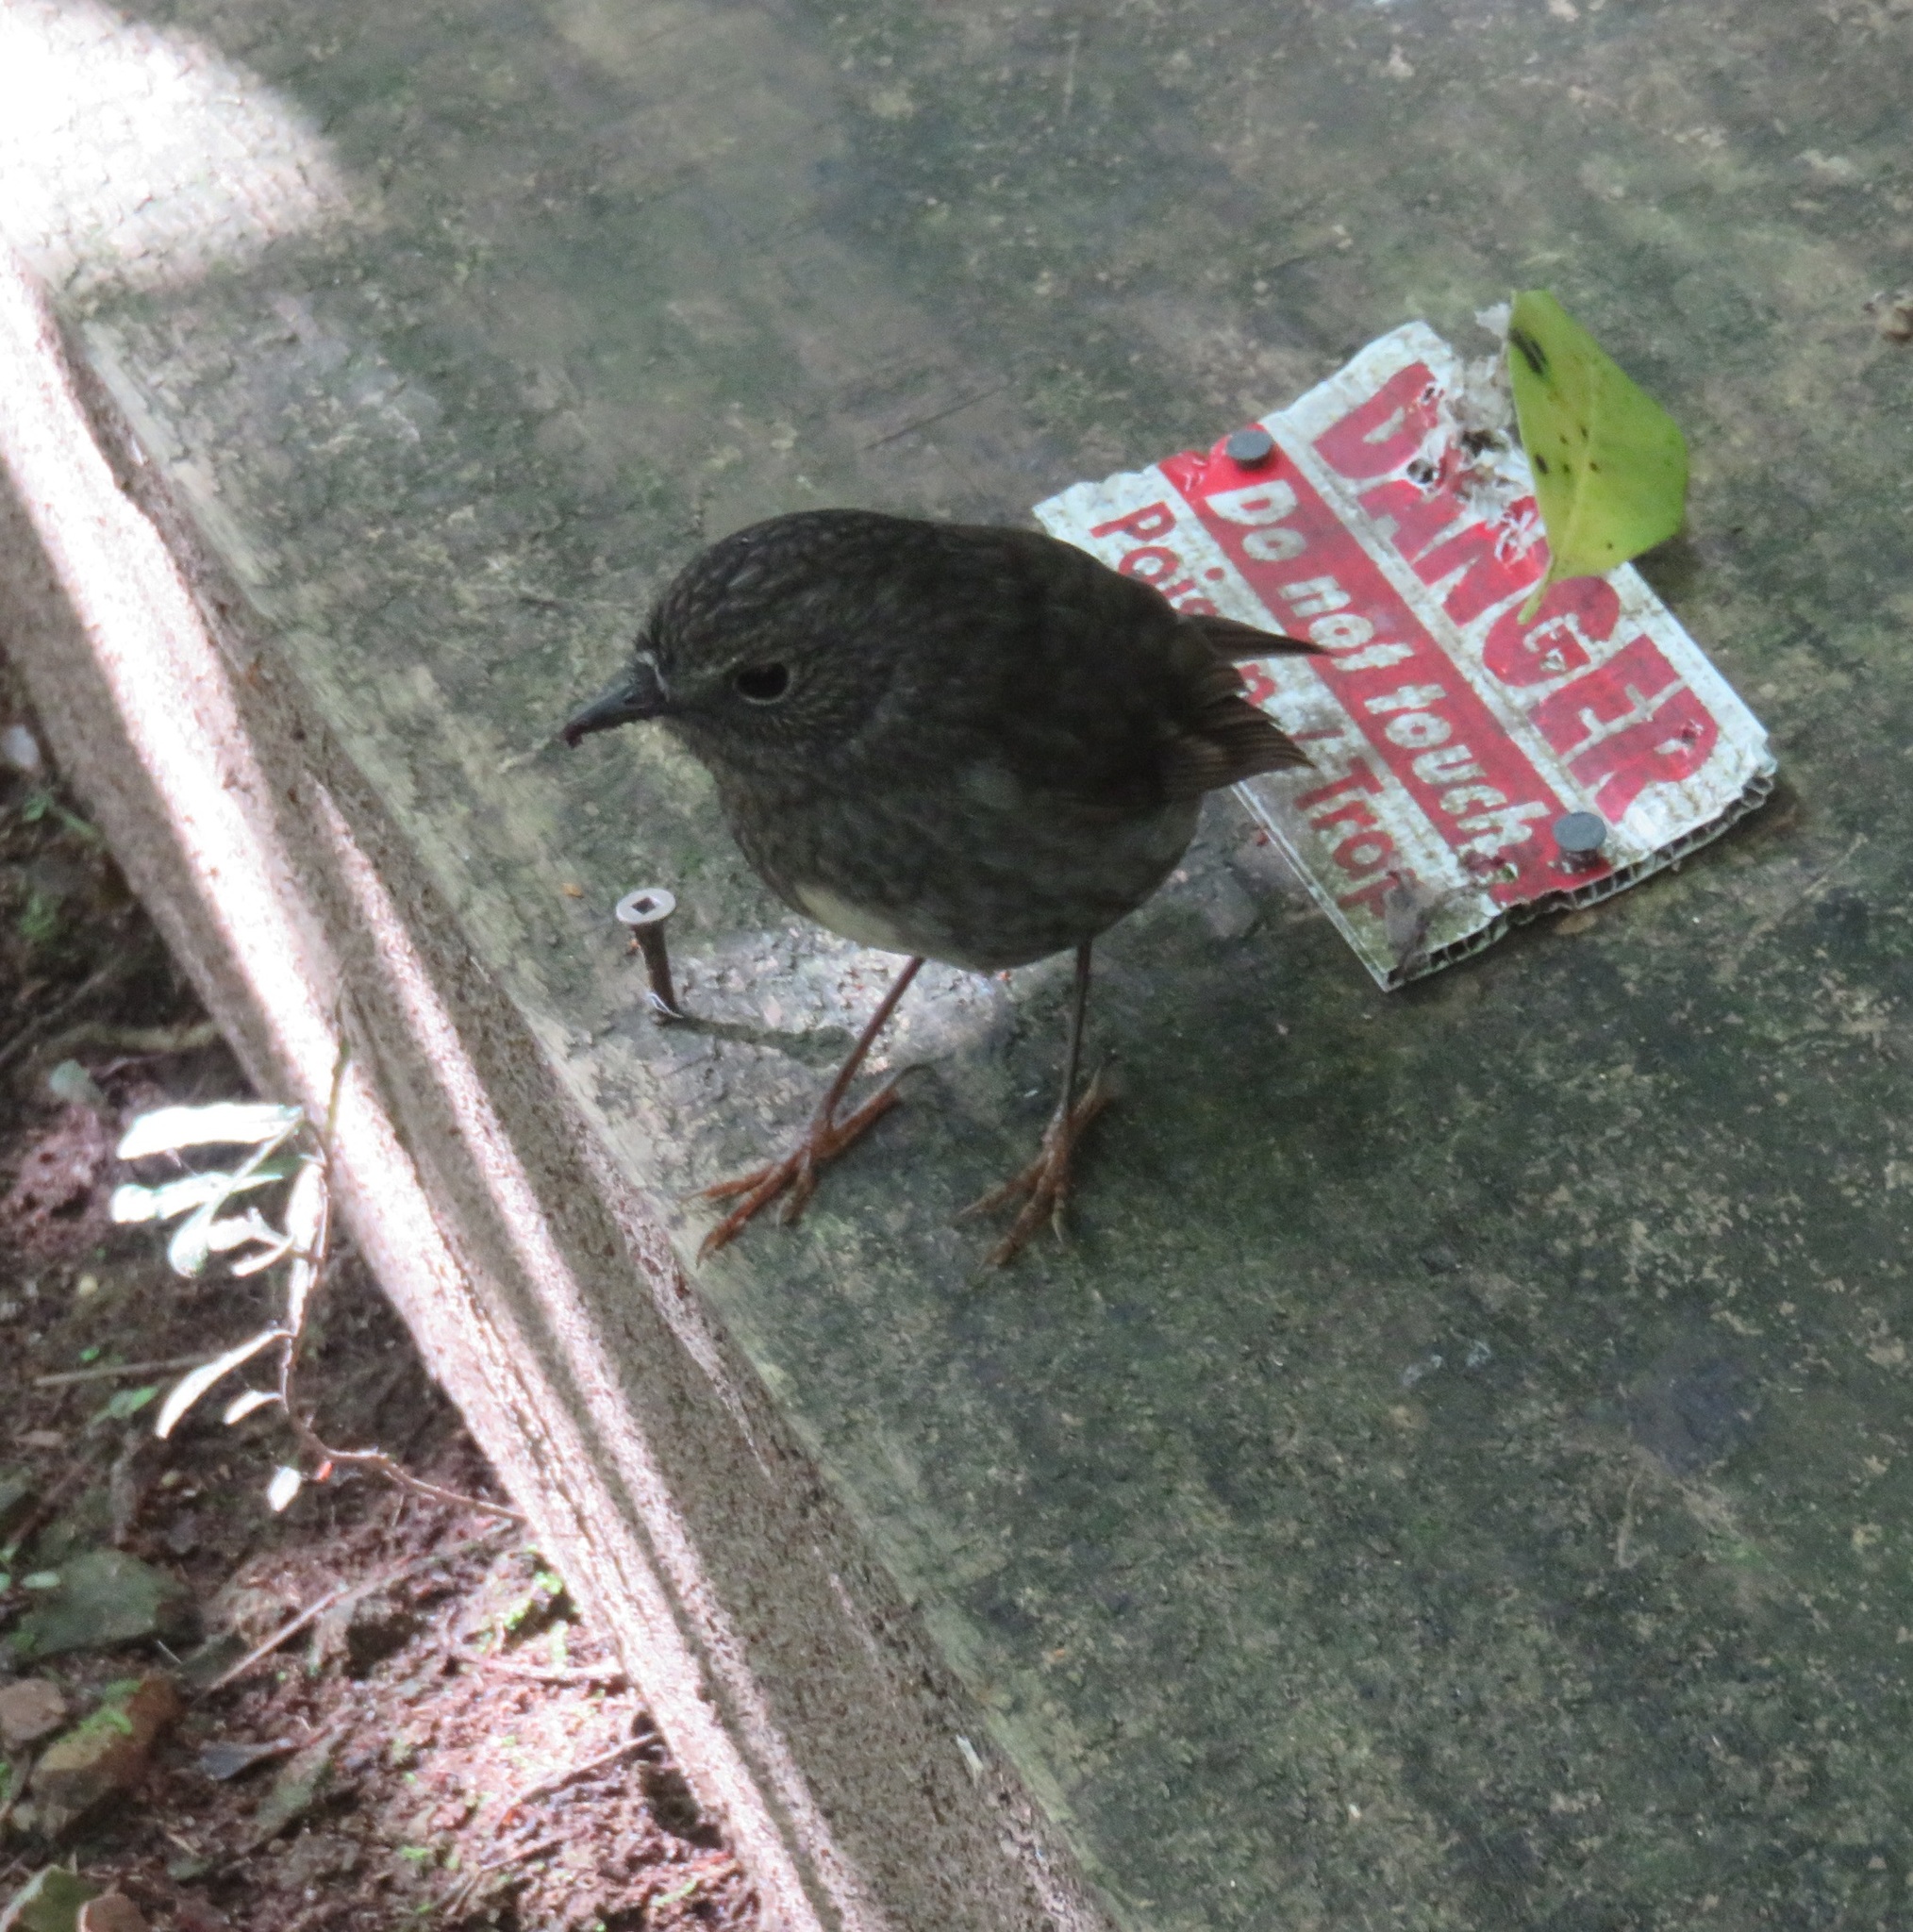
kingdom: Animalia
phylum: Chordata
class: Aves
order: Passeriformes
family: Petroicidae
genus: Petroica
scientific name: Petroica australis
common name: New zealand robin
